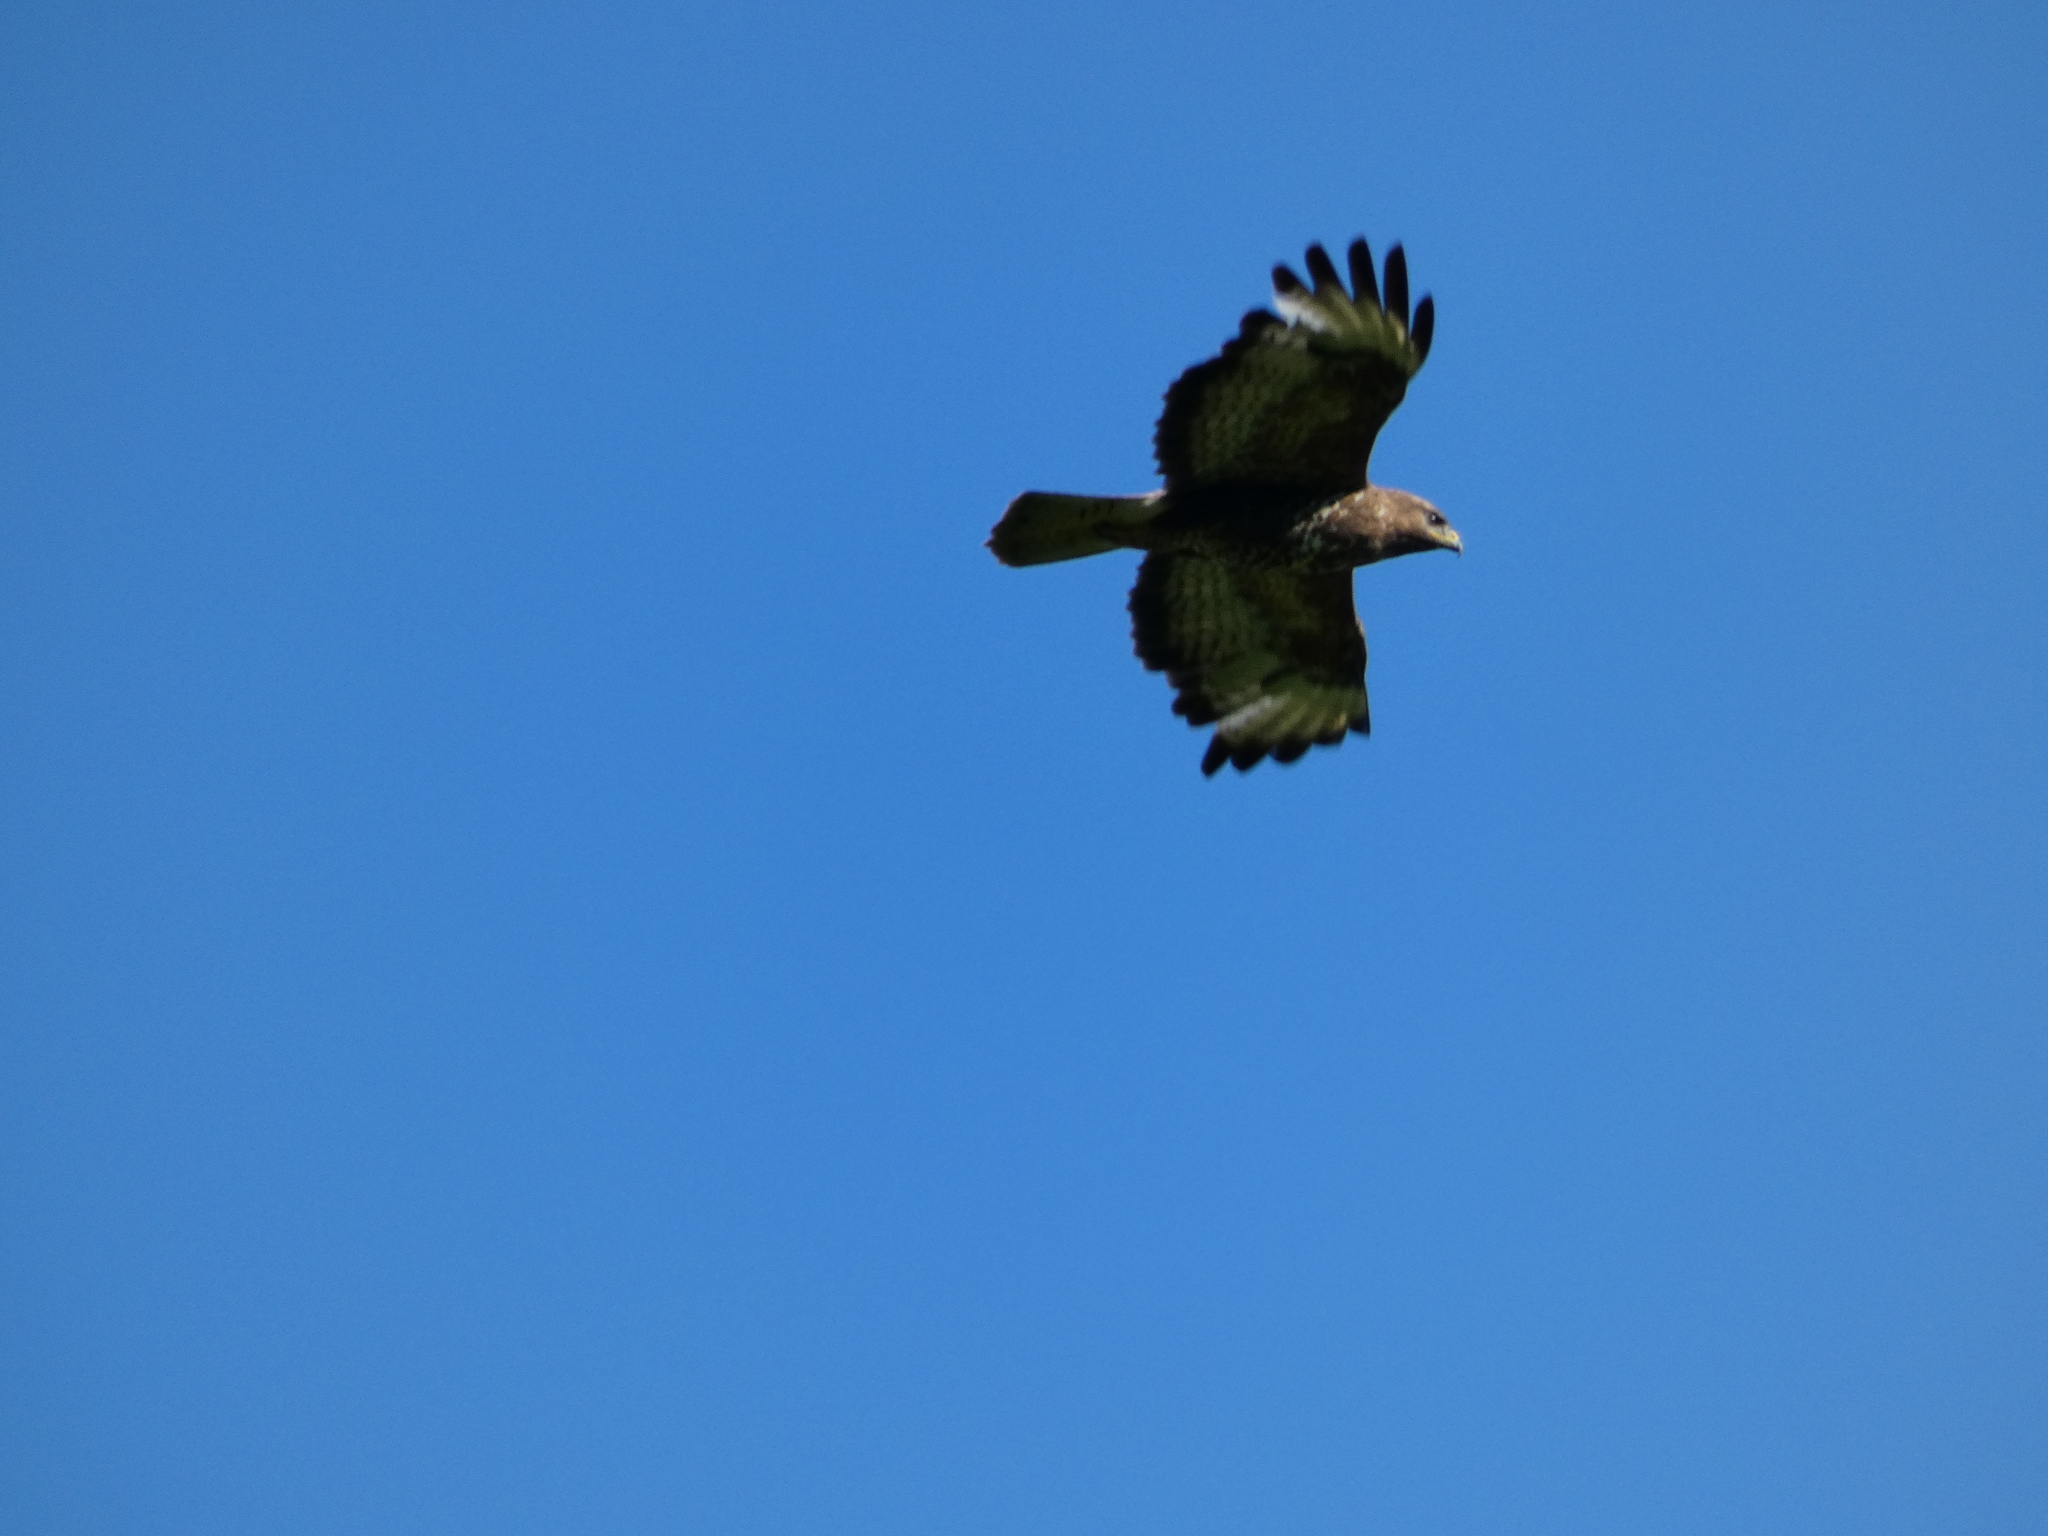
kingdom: Animalia
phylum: Chordata
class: Aves
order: Accipitriformes
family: Accipitridae
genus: Buteo
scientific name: Buteo buteo
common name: Common buzzard
